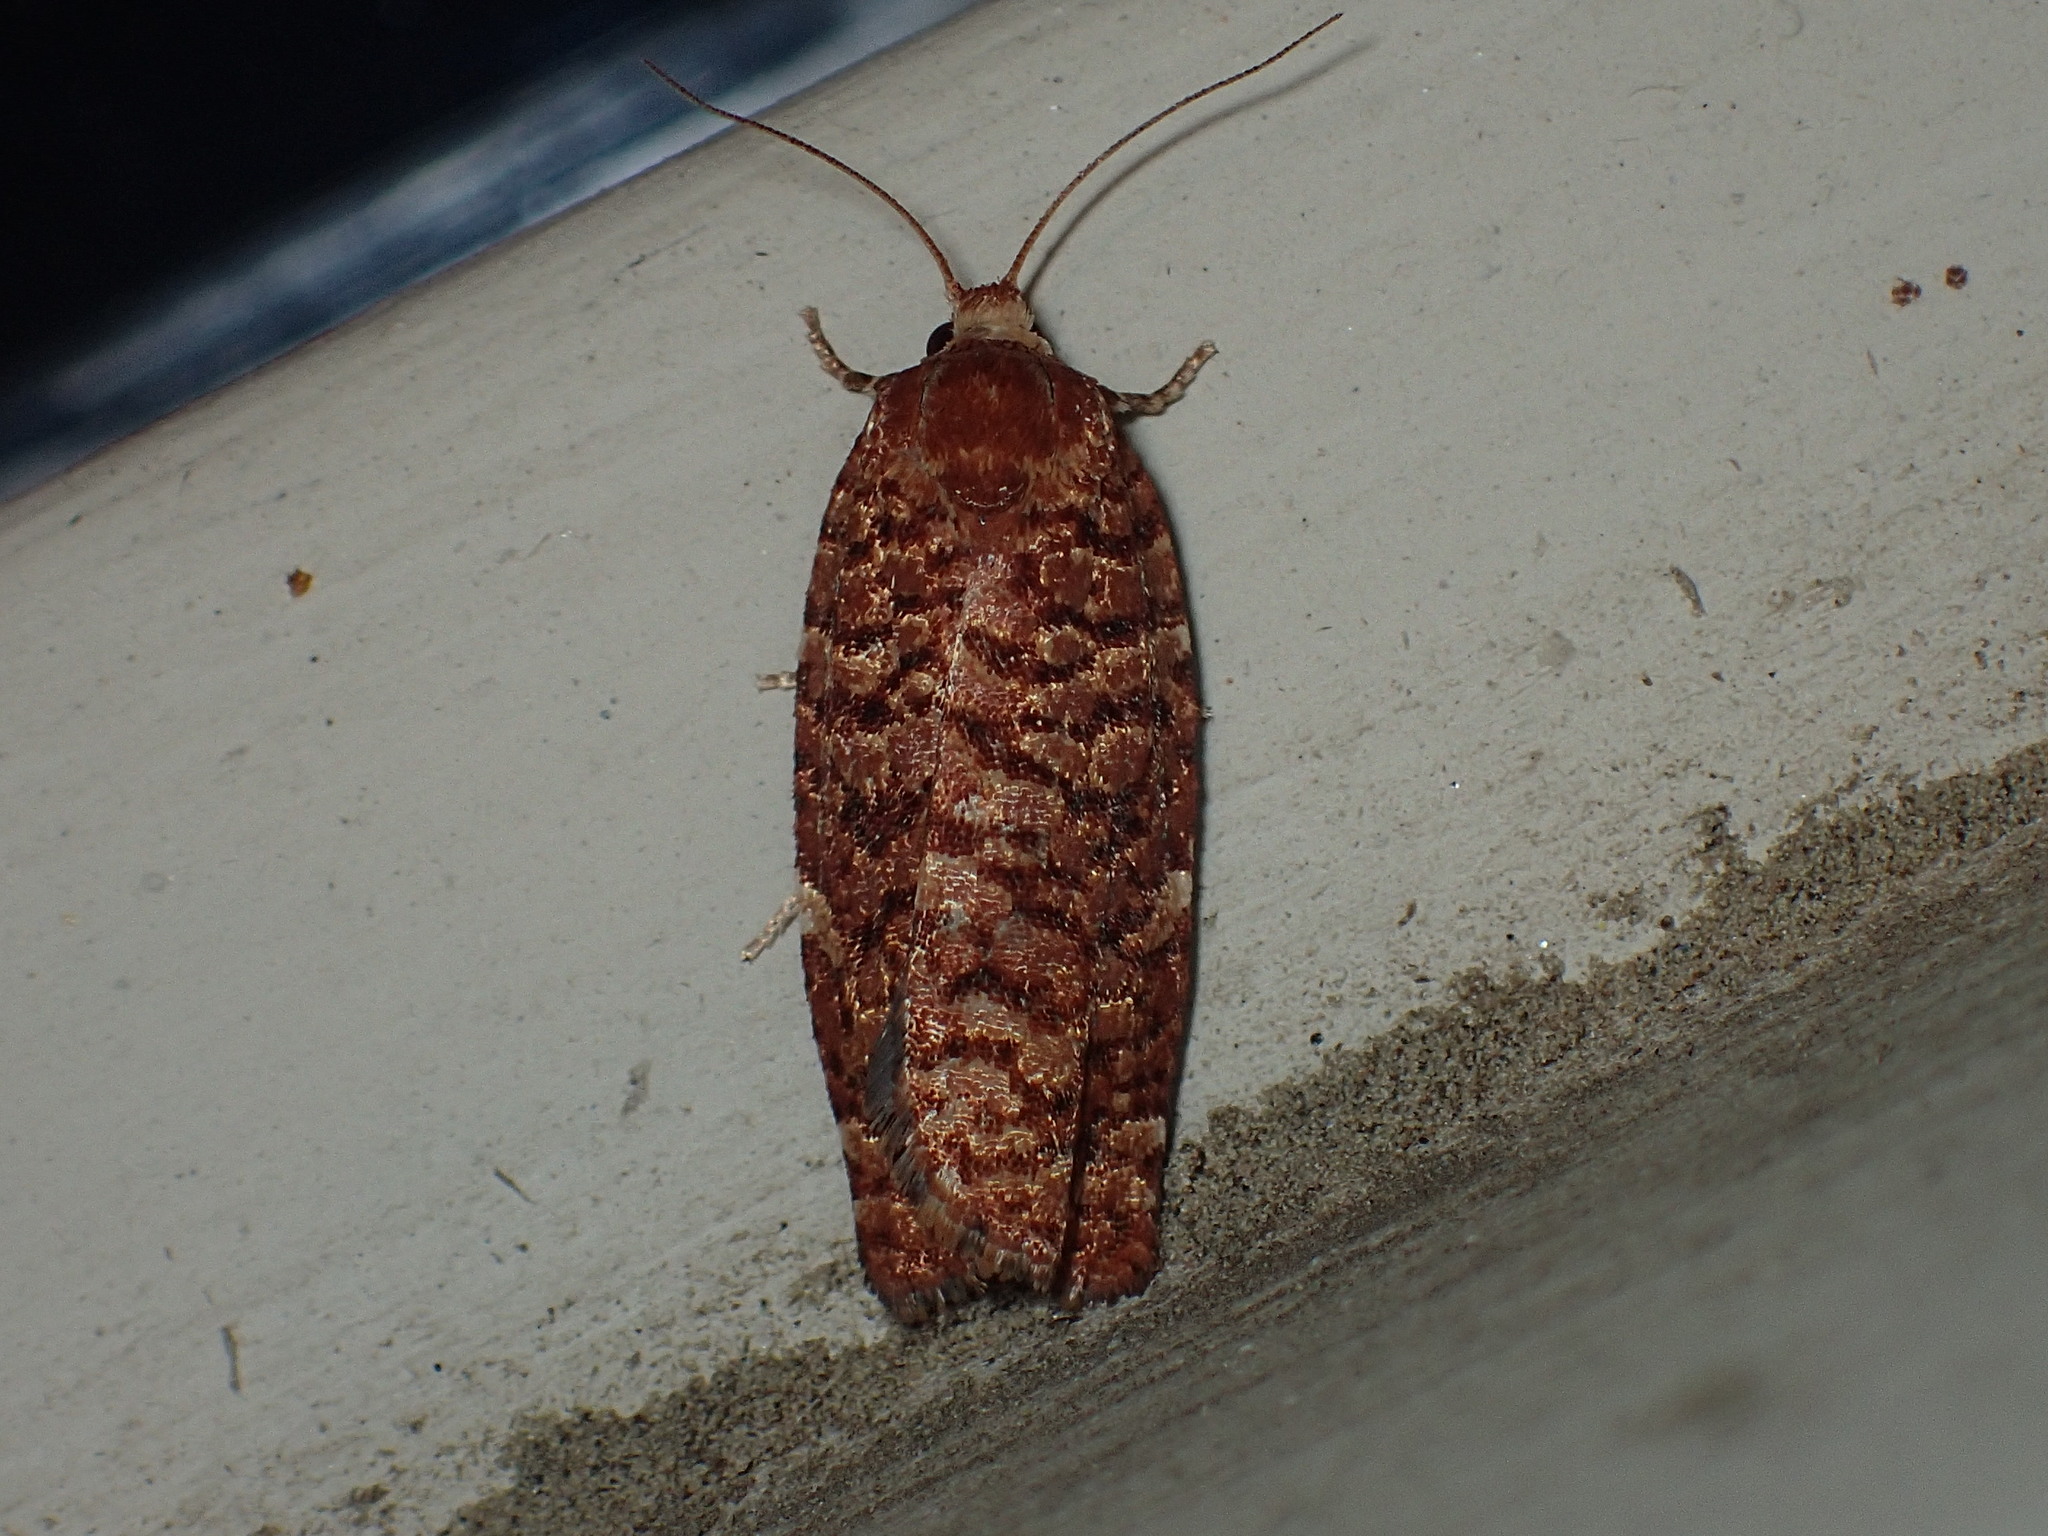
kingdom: Animalia
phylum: Arthropoda
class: Insecta
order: Lepidoptera
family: Tortricidae
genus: Choristoneura
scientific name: Choristoneura pinus
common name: Jack pine budworm
